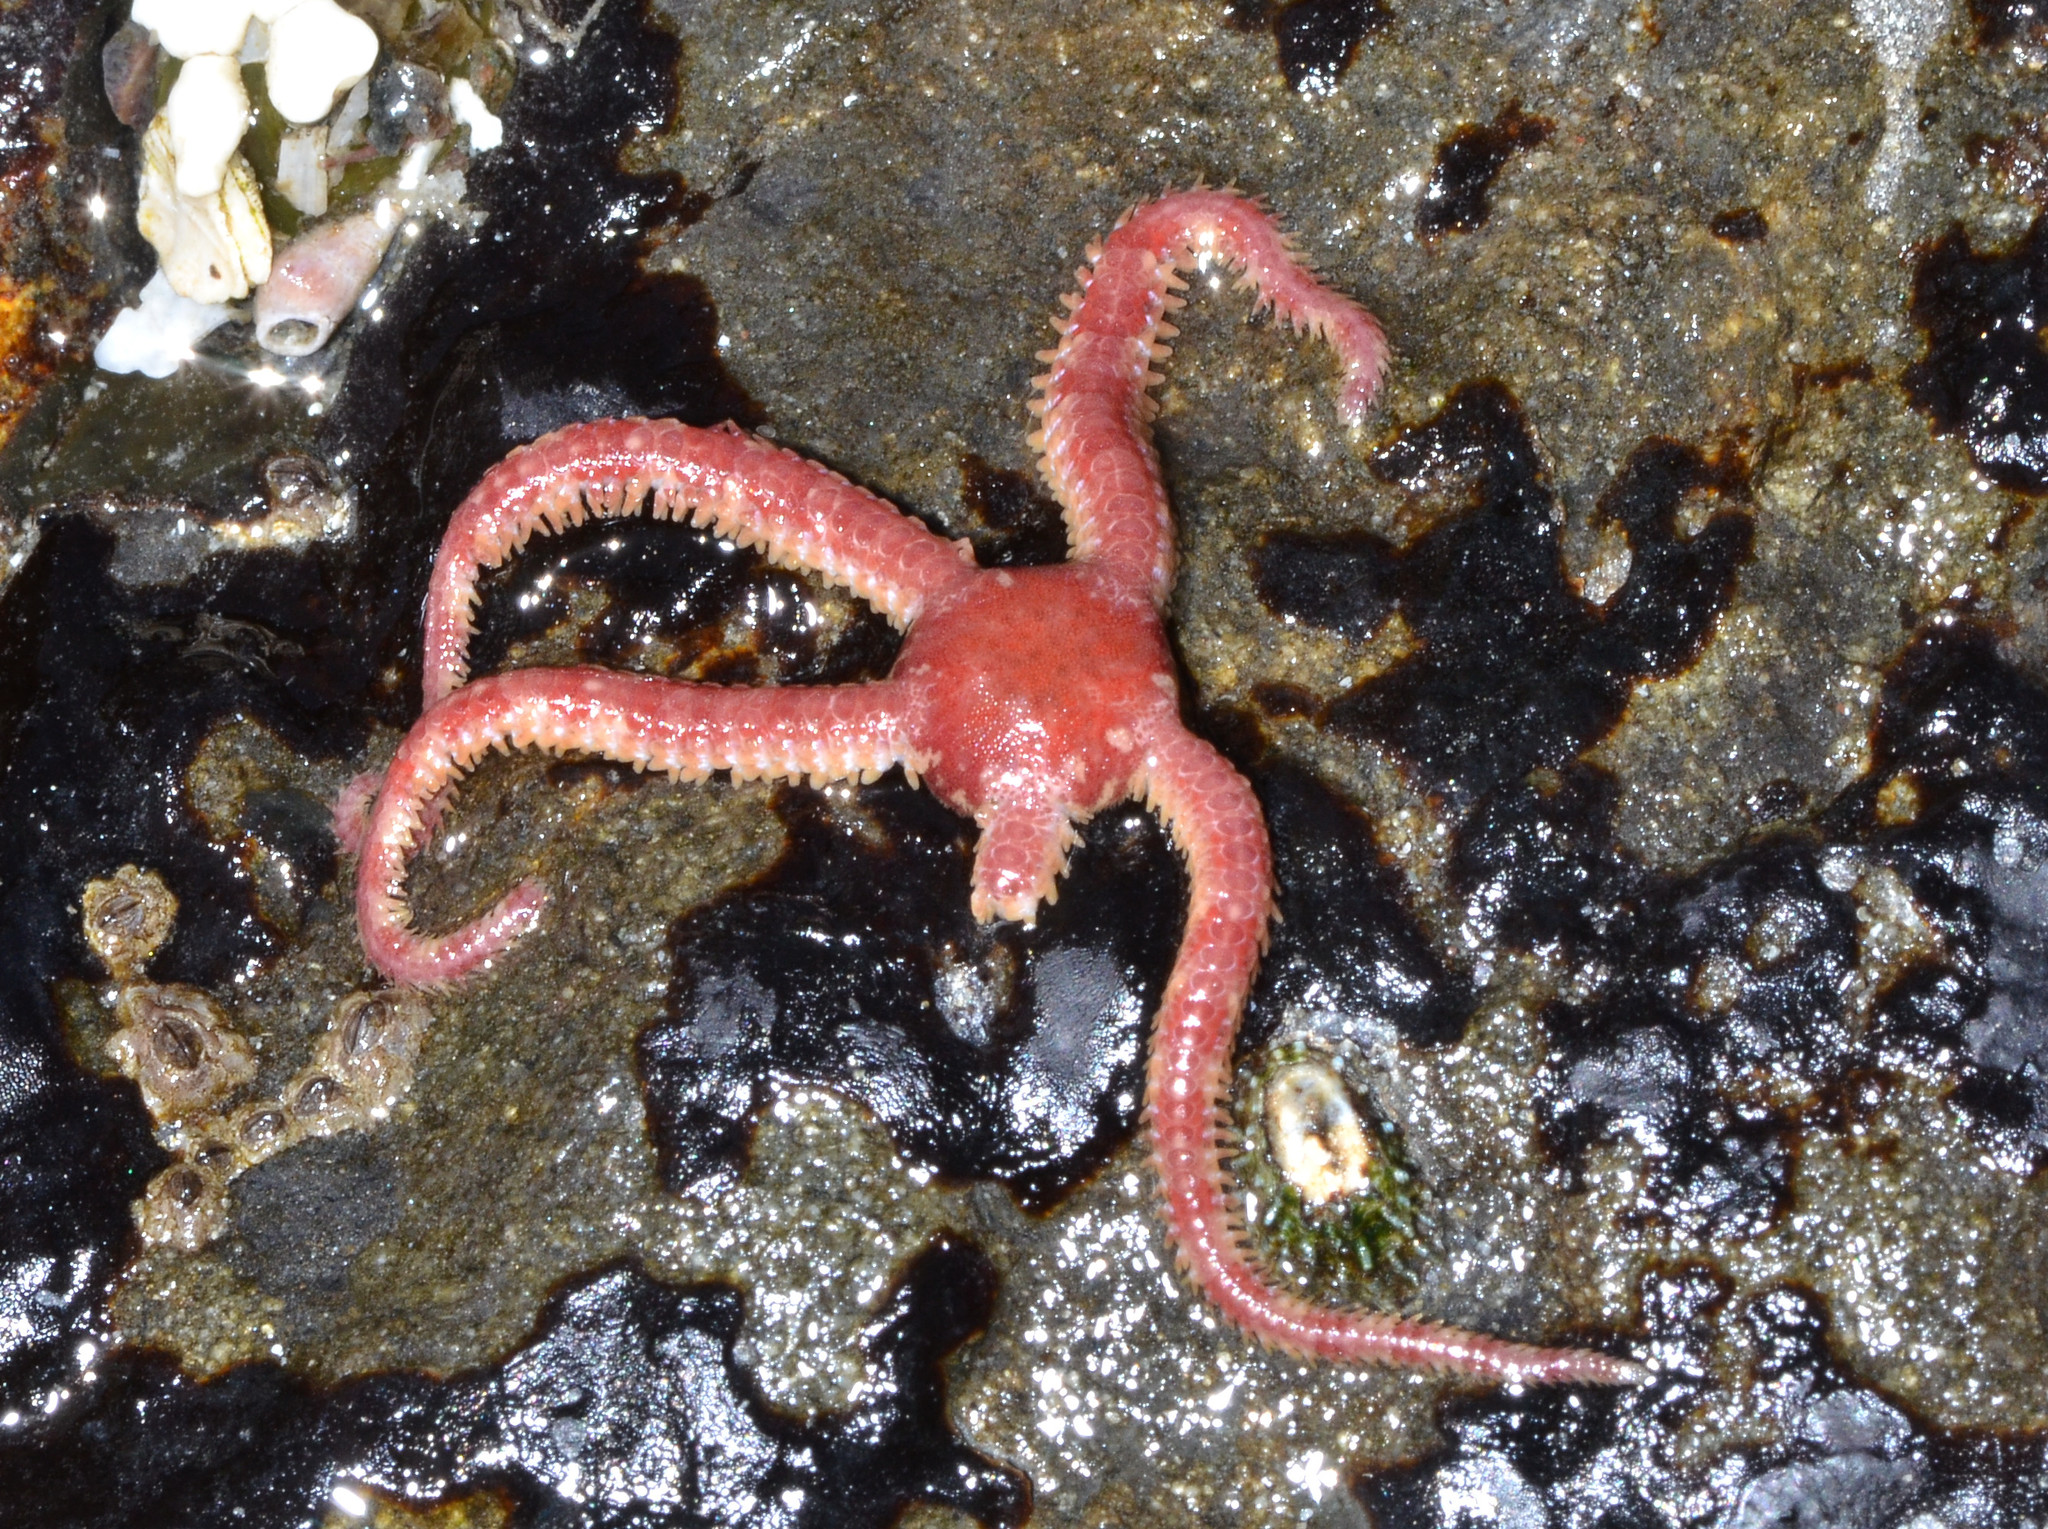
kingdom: Animalia
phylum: Echinodermata
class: Ophiuroidea
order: Amphilepidida
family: Ophiopholidae
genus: Ophiopholis
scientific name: Ophiopholis kennerlyi
